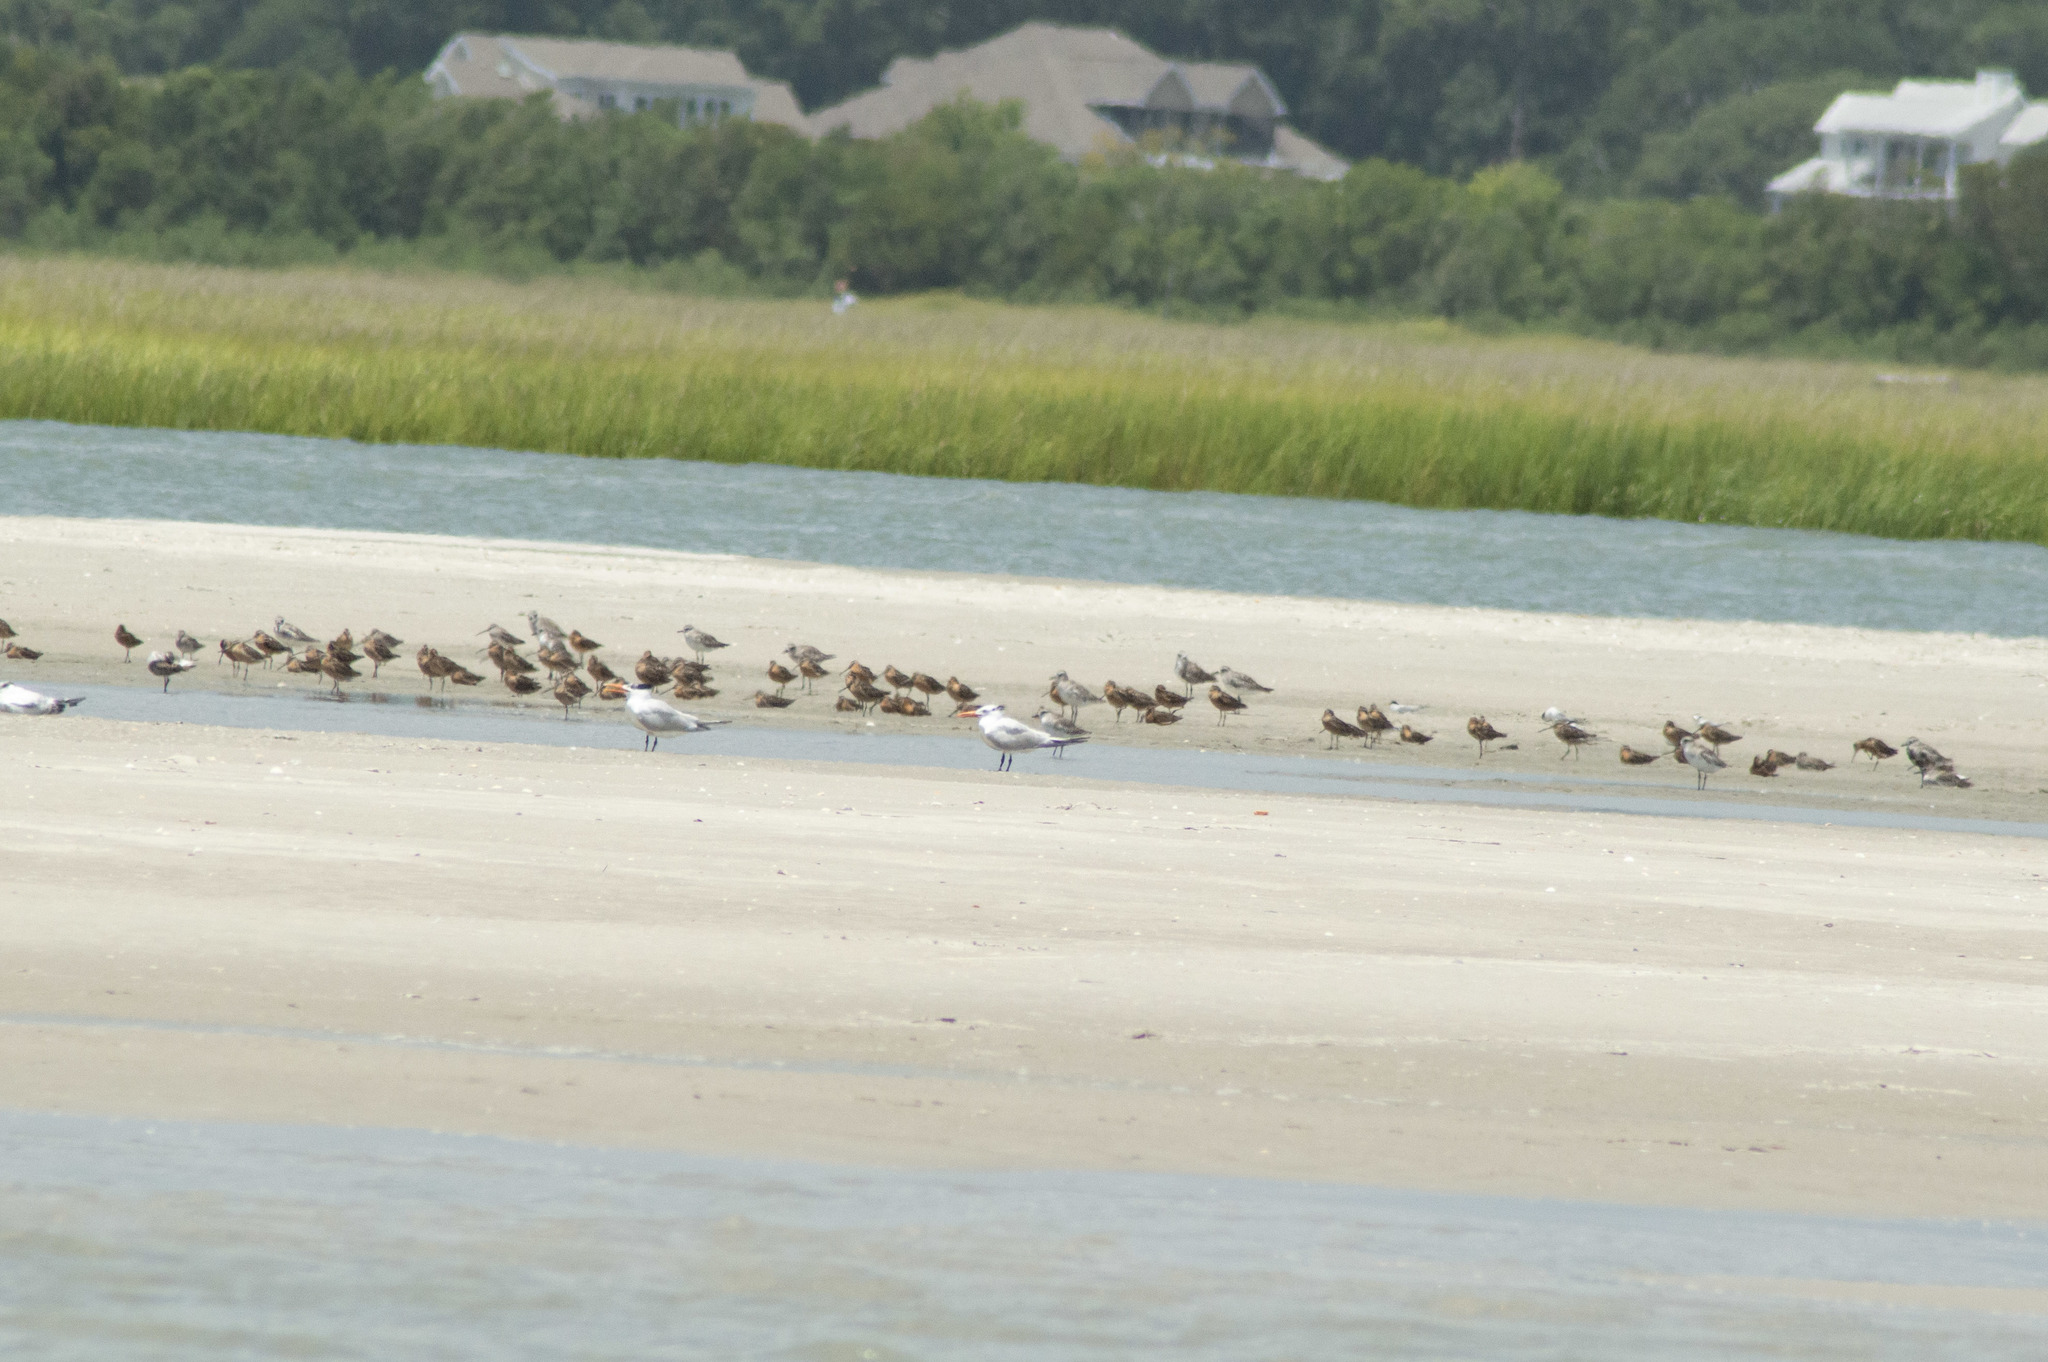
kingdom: Animalia
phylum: Chordata
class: Aves
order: Charadriiformes
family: Charadriidae
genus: Pluvialis
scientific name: Pluvialis squatarola
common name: Grey plover
